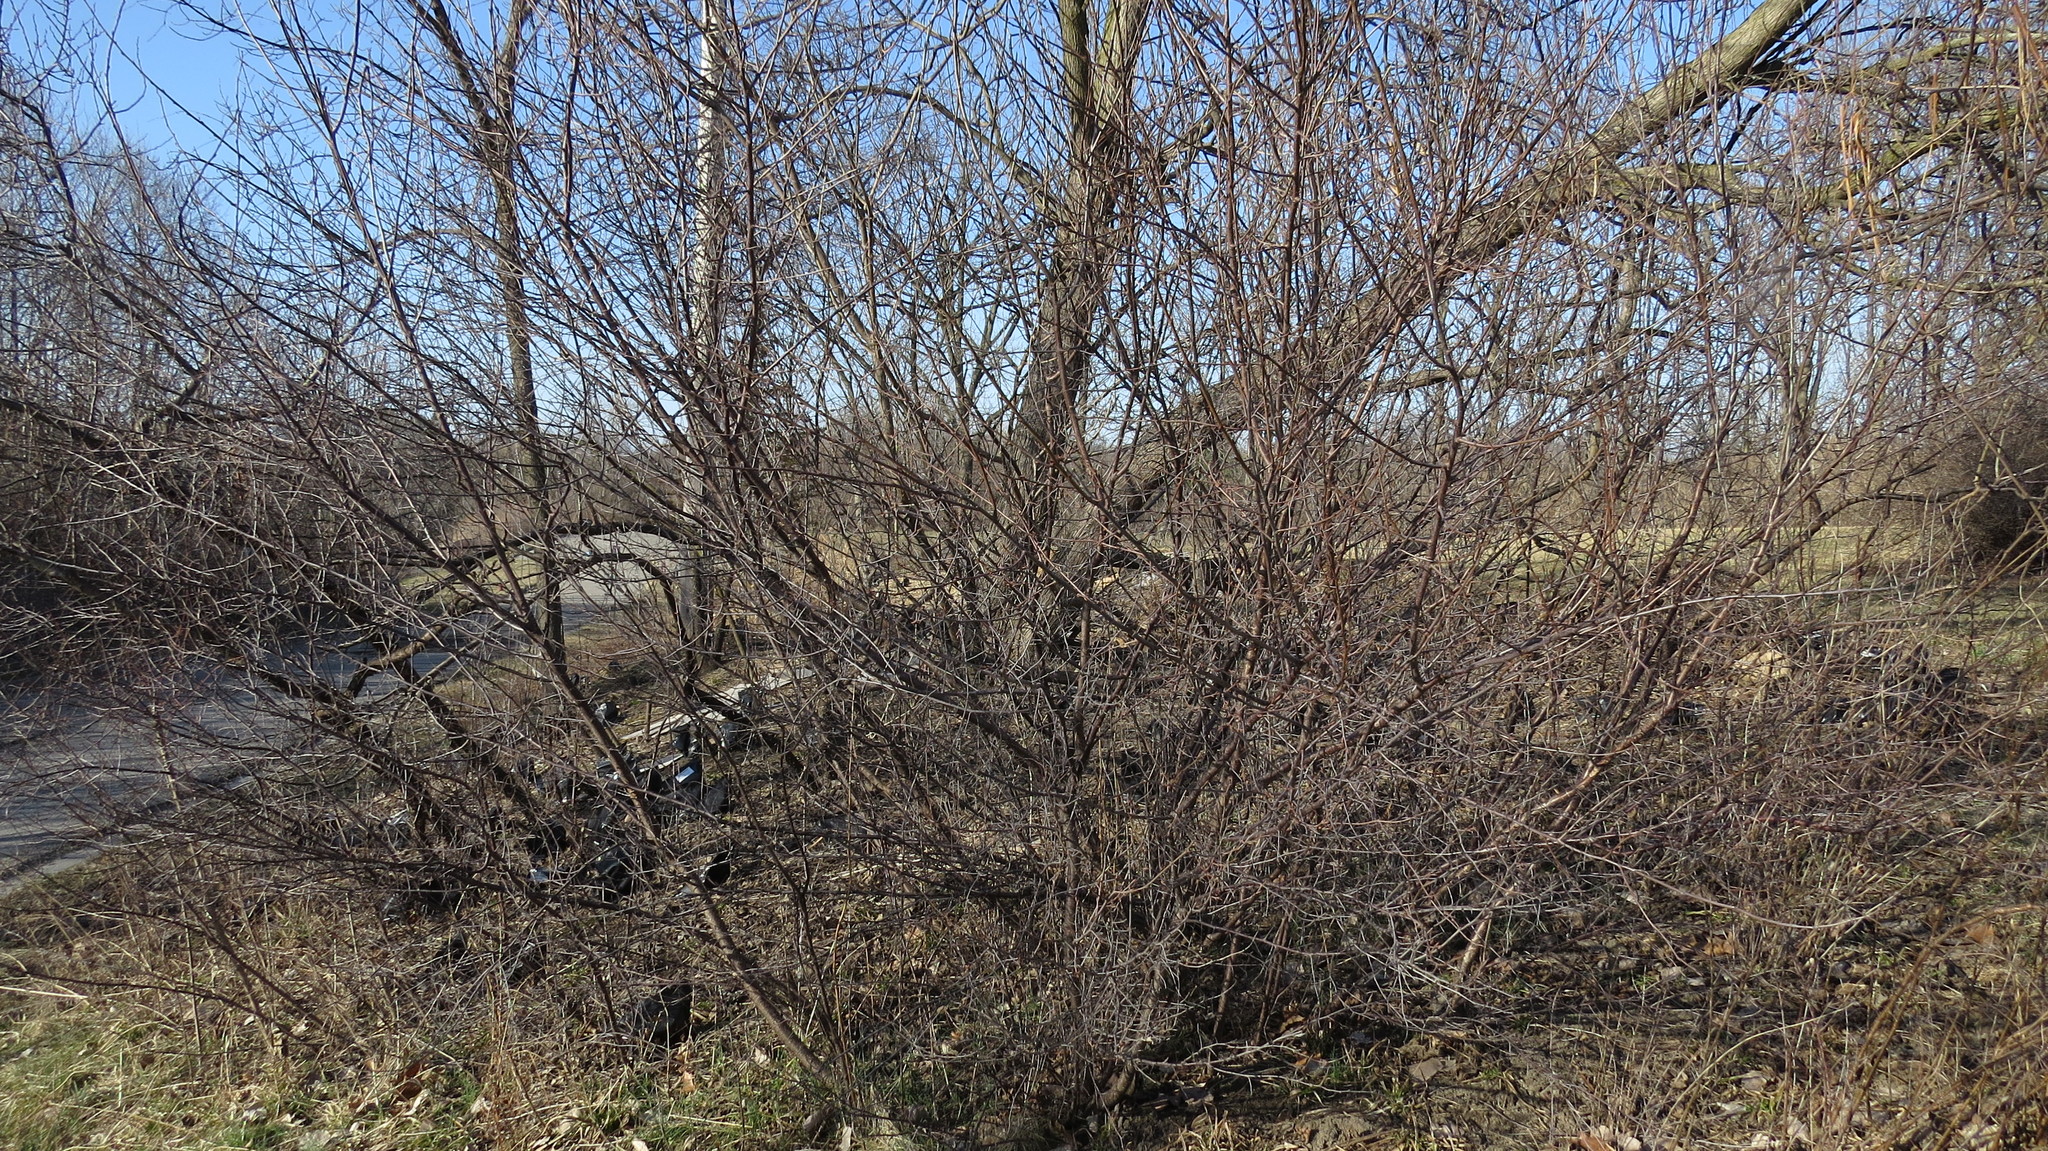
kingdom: Plantae
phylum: Tracheophyta
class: Magnoliopsida
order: Rosales
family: Rosaceae
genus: Prunus
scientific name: Prunus americana
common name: American plum
